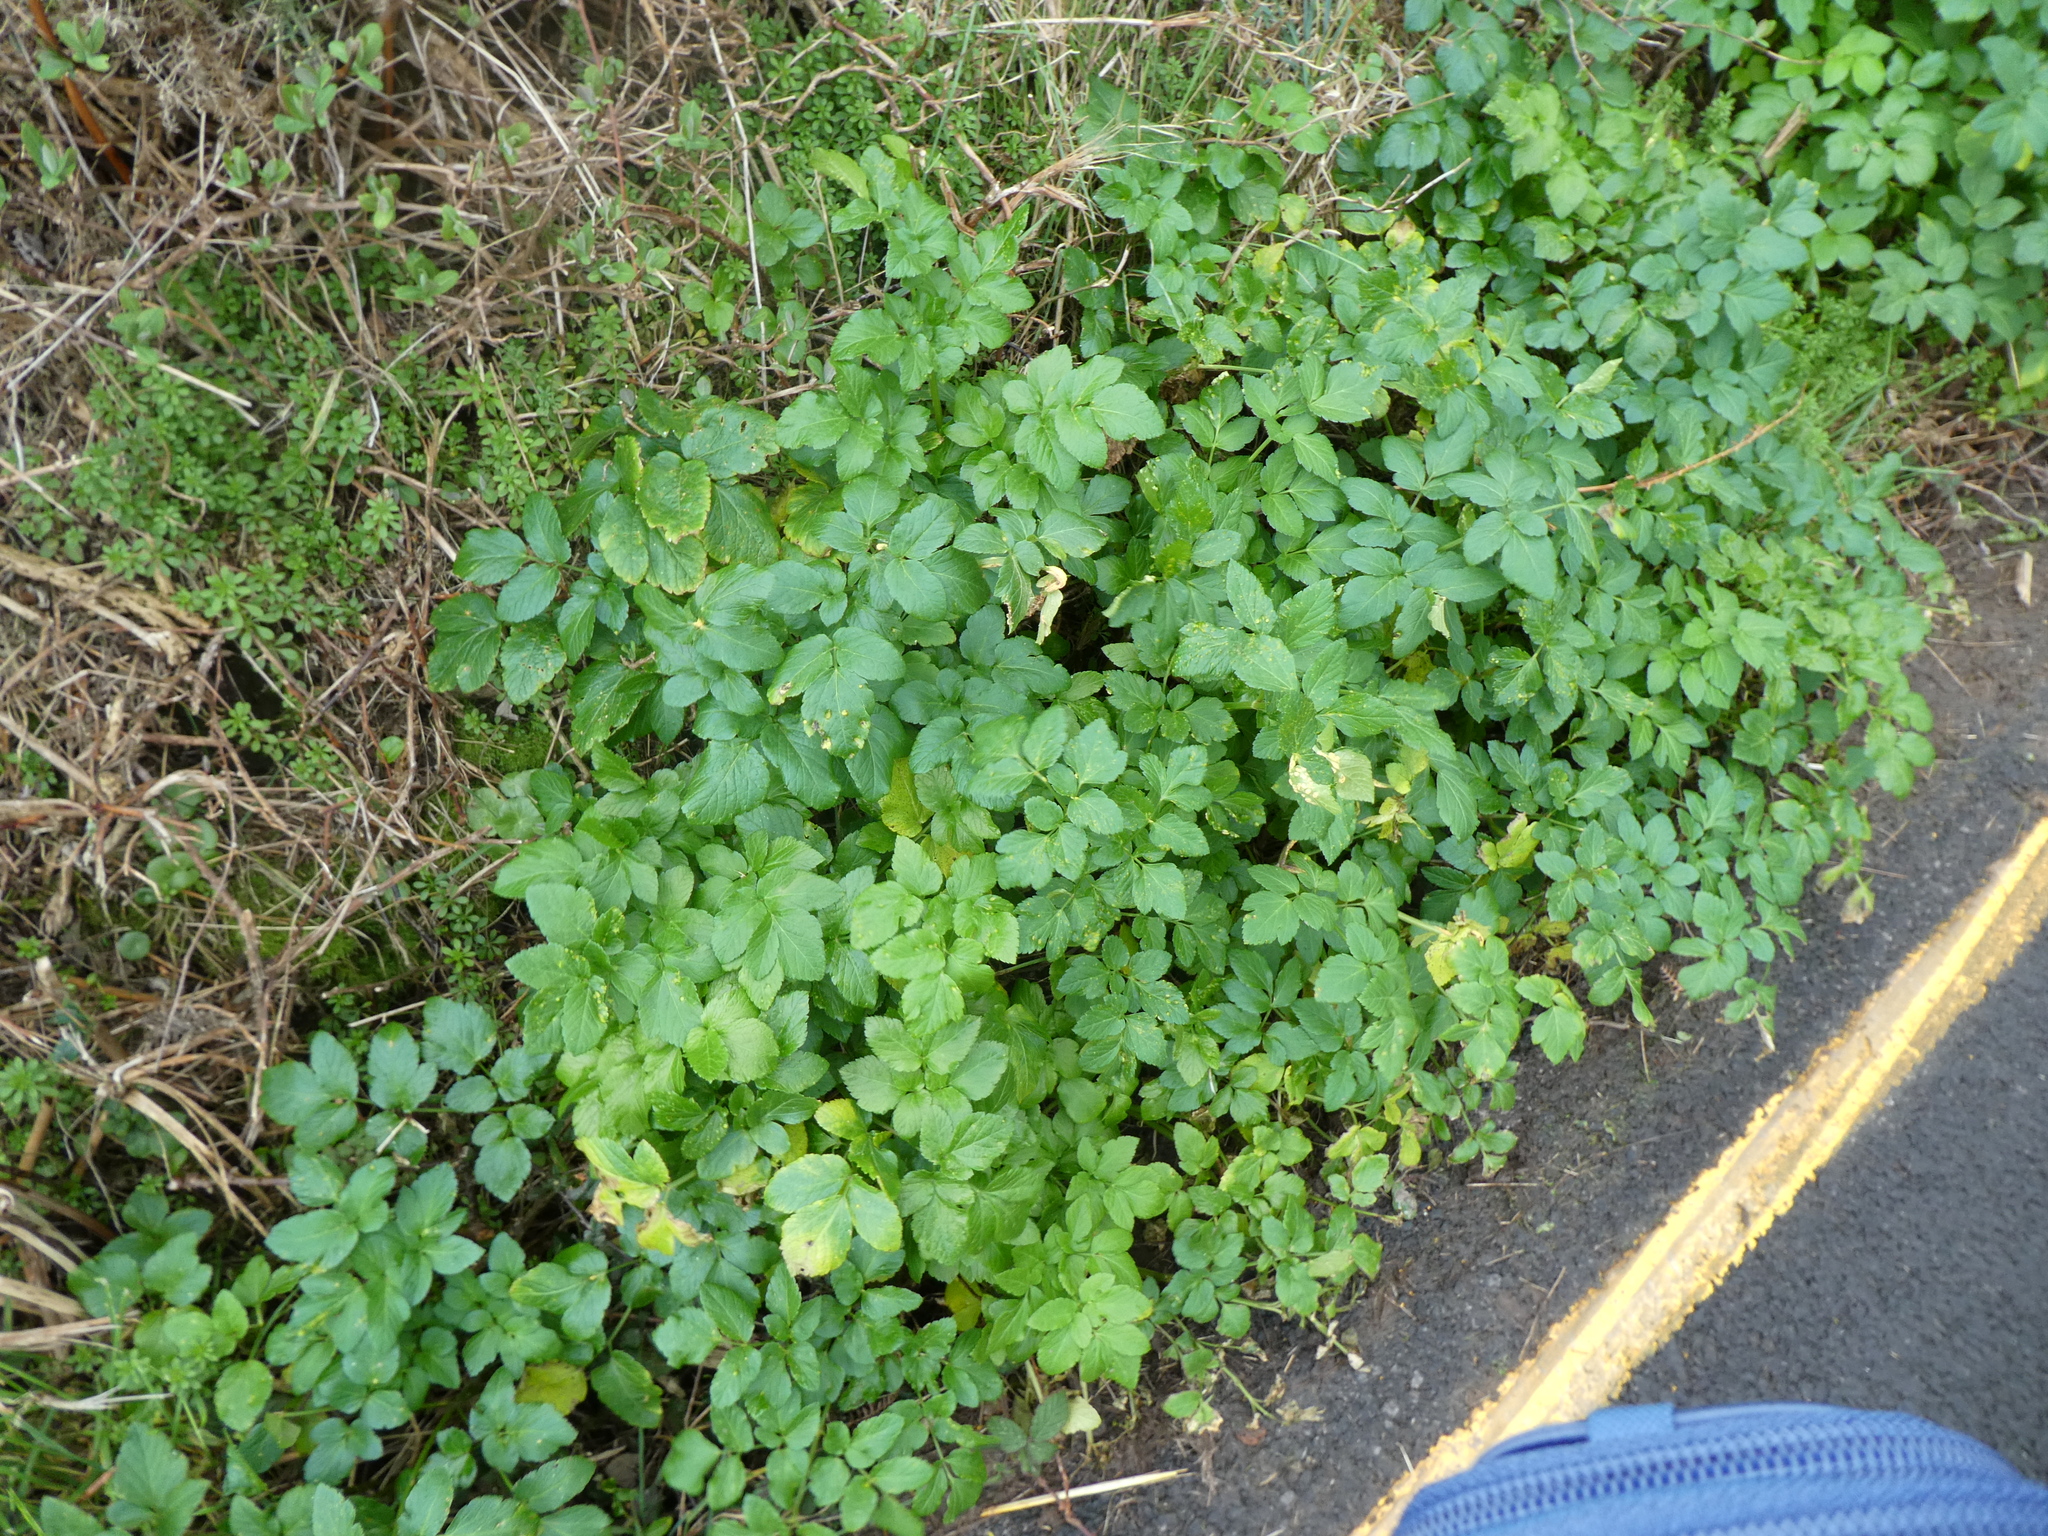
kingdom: Plantae
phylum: Tracheophyta
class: Magnoliopsida
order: Apiales
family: Apiaceae
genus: Smyrnium
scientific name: Smyrnium olusatrum
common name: Alexanders
